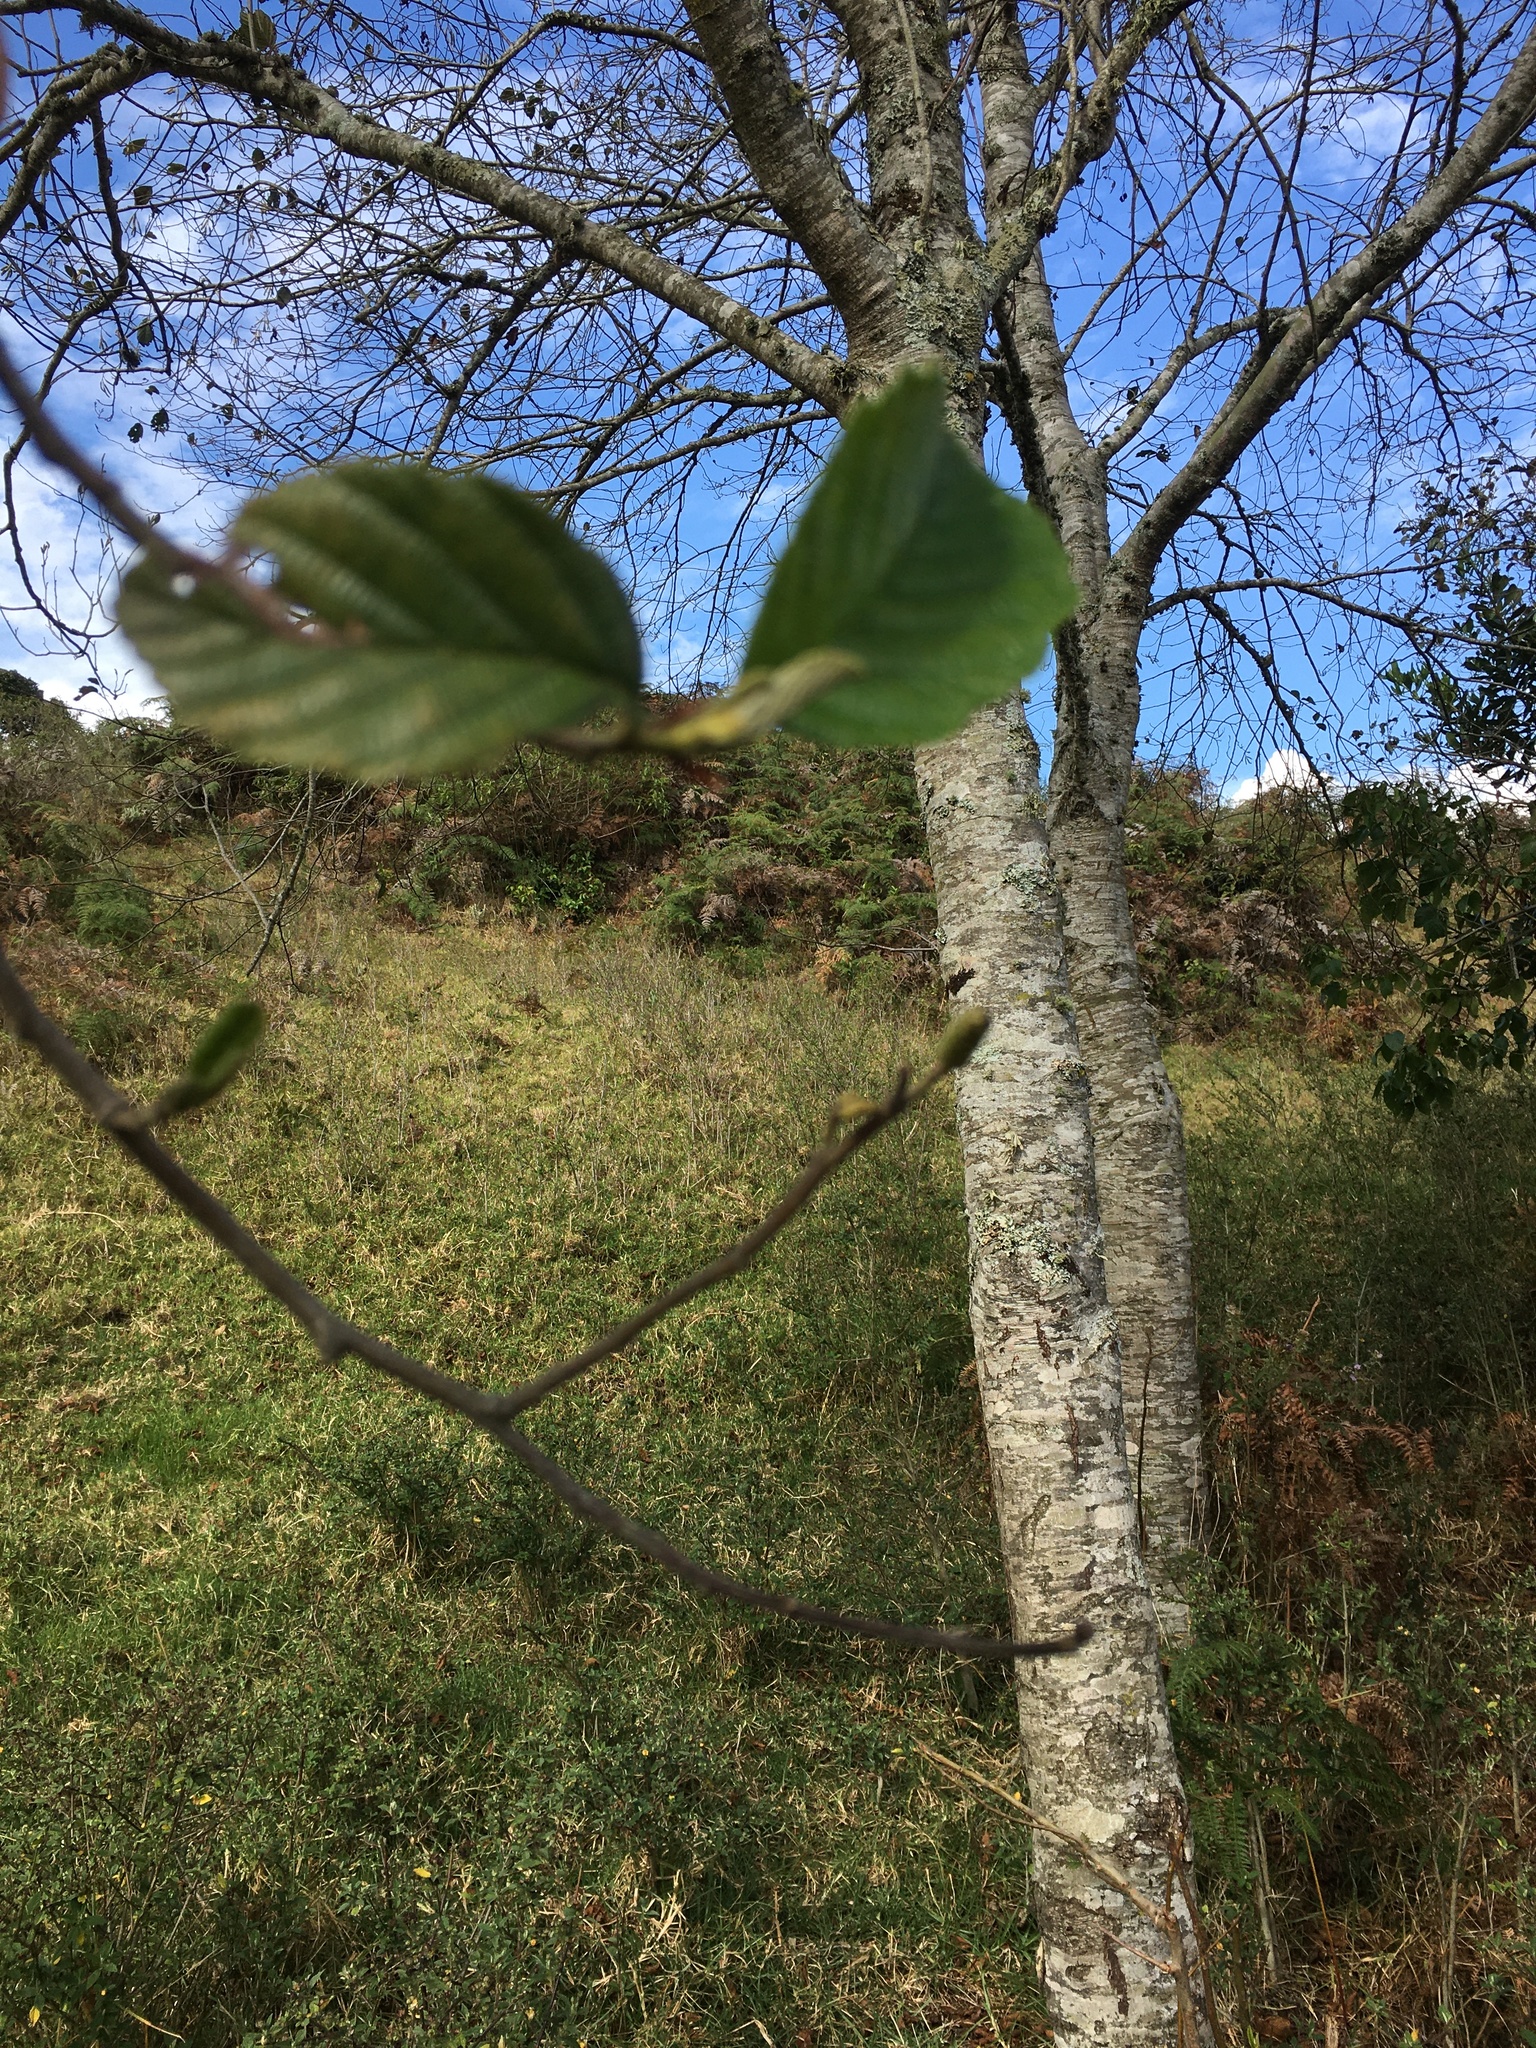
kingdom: Plantae
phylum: Tracheophyta
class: Magnoliopsida
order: Fagales
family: Betulaceae
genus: Alnus
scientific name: Alnus acuminata
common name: Alder
